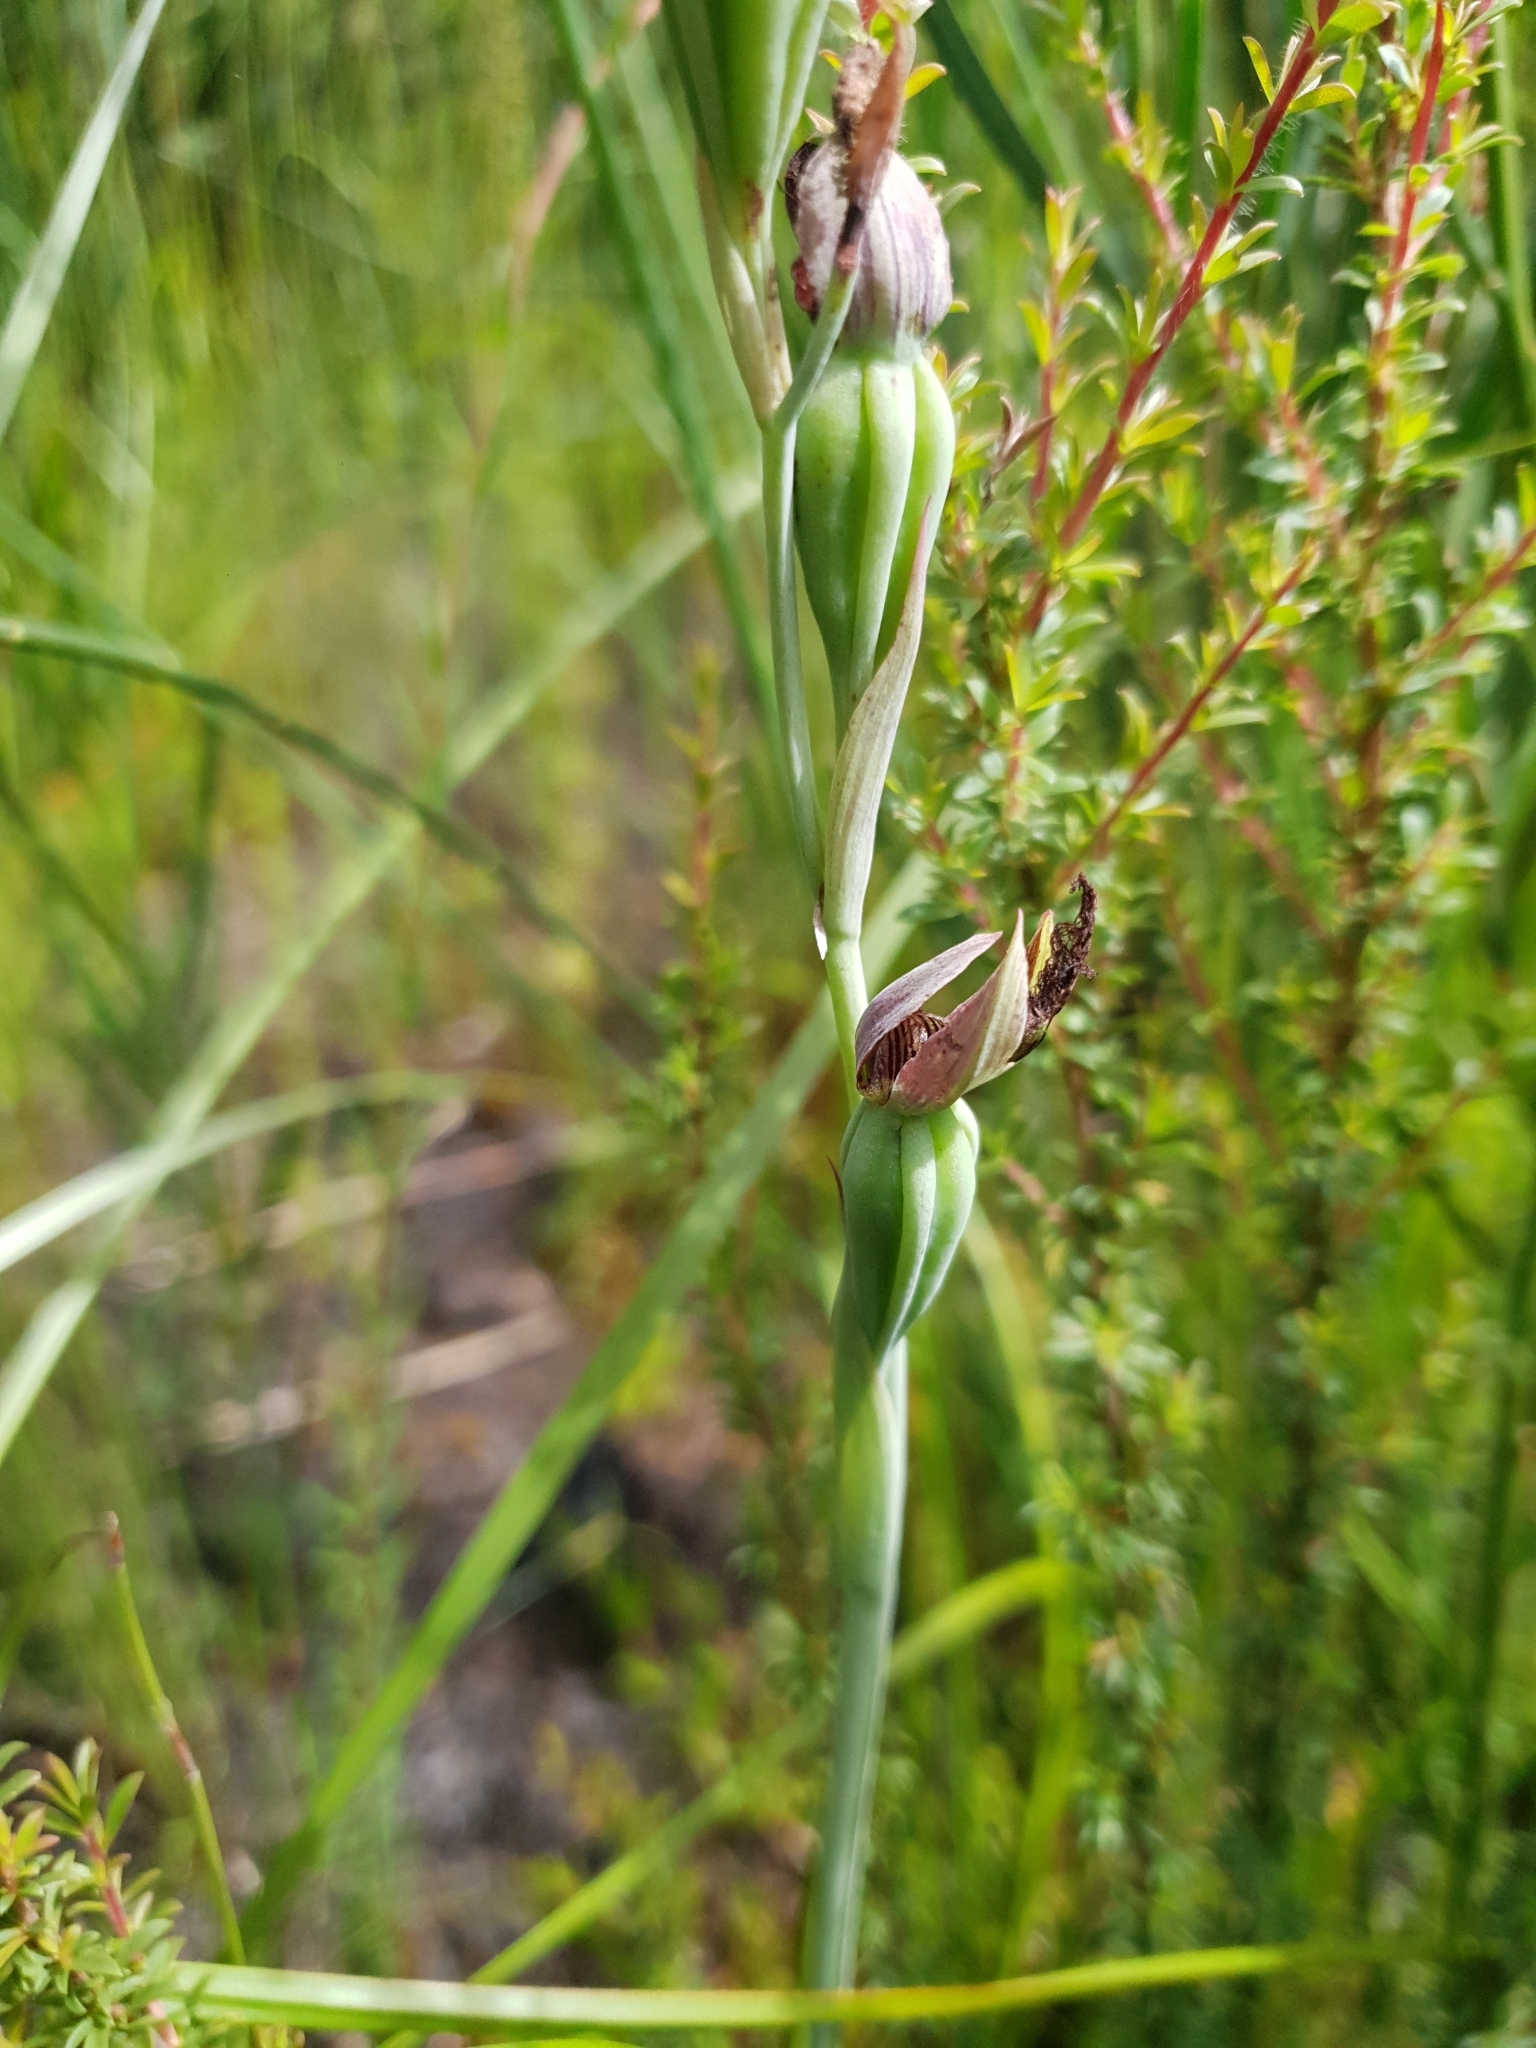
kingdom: Plantae
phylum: Tracheophyta
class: Liliopsida
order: Asparagales
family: Orchidaceae
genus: Calochilus
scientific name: Calochilus uliginosus
